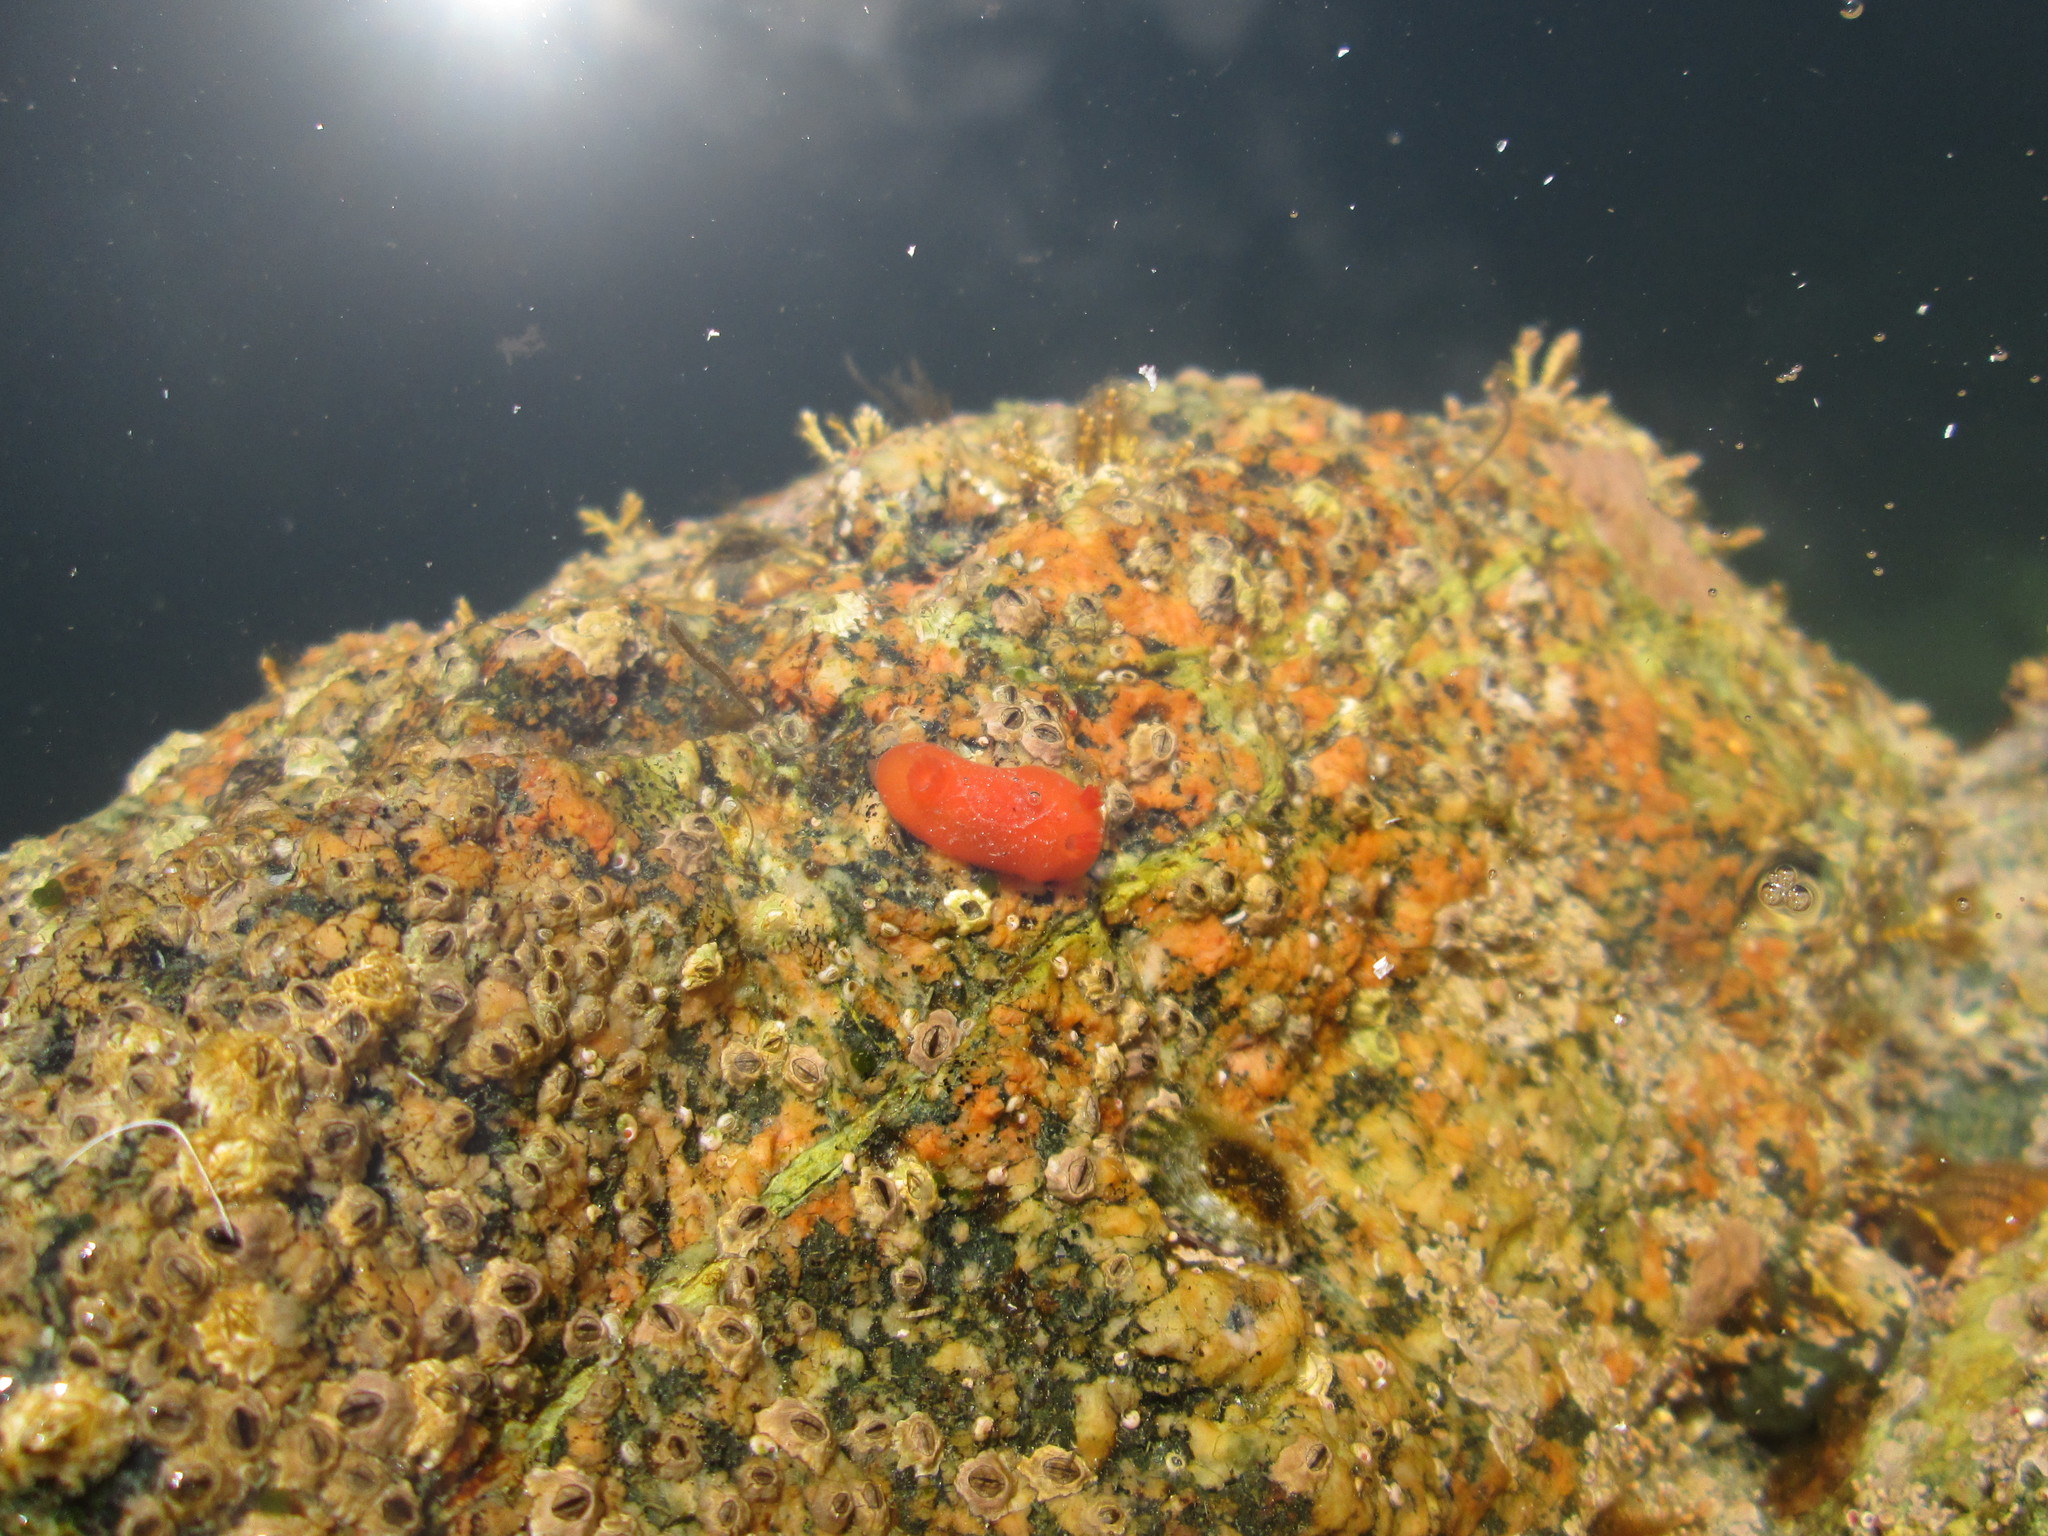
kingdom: Animalia
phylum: Mollusca
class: Gastropoda
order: Nudibranchia
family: Discodorididae
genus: Rostanga
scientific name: Rostanga pulchra
